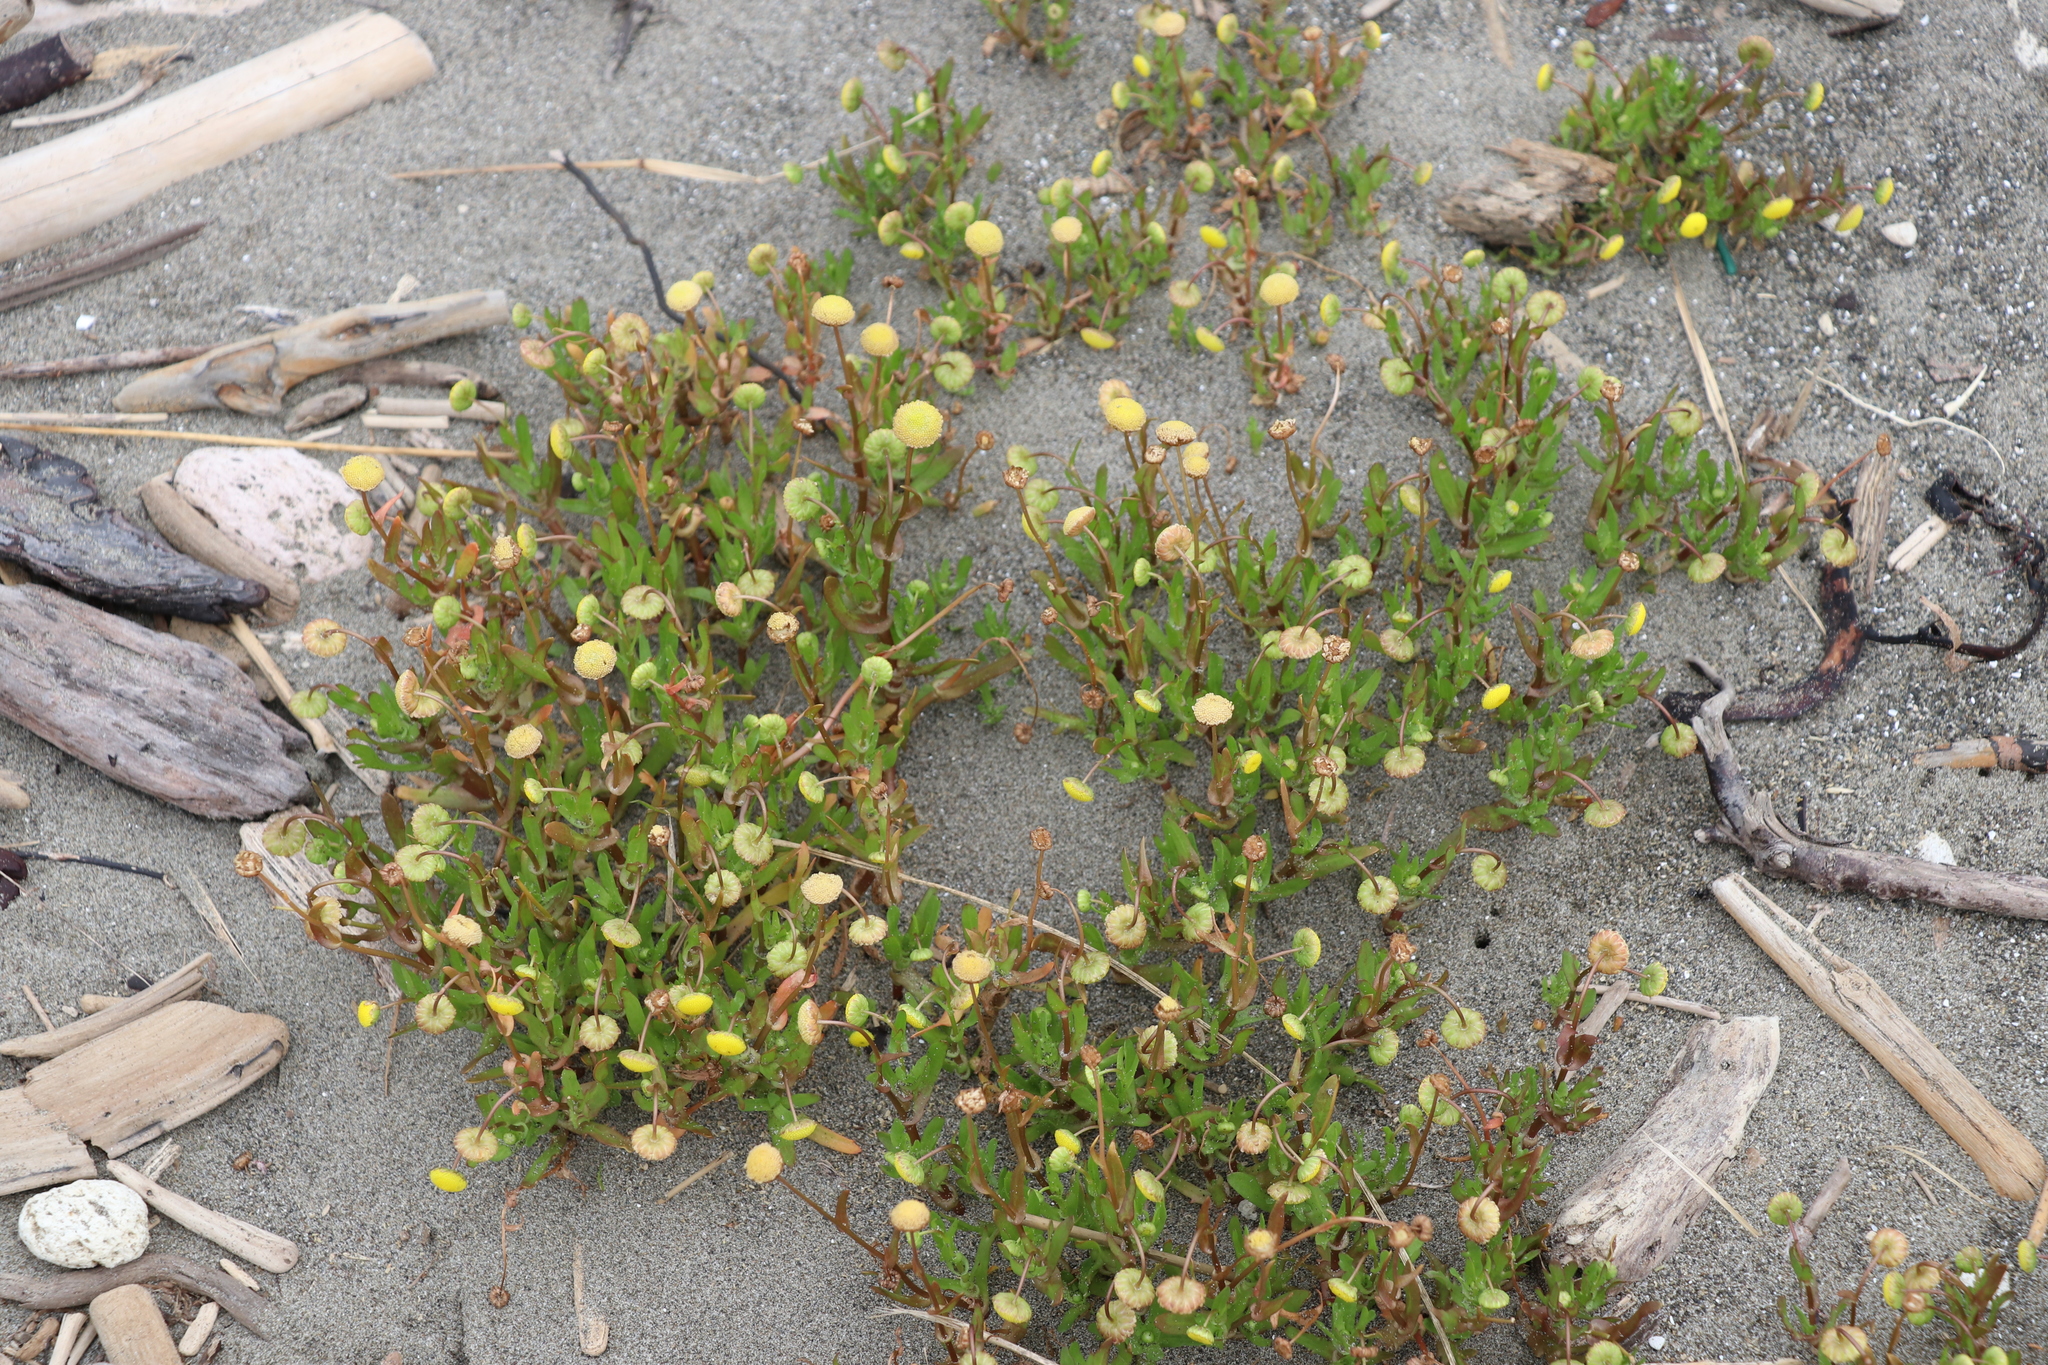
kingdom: Plantae
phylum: Tracheophyta
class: Magnoliopsida
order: Asterales
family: Asteraceae
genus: Cotula
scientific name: Cotula coronopifolia
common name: Buttonweed
